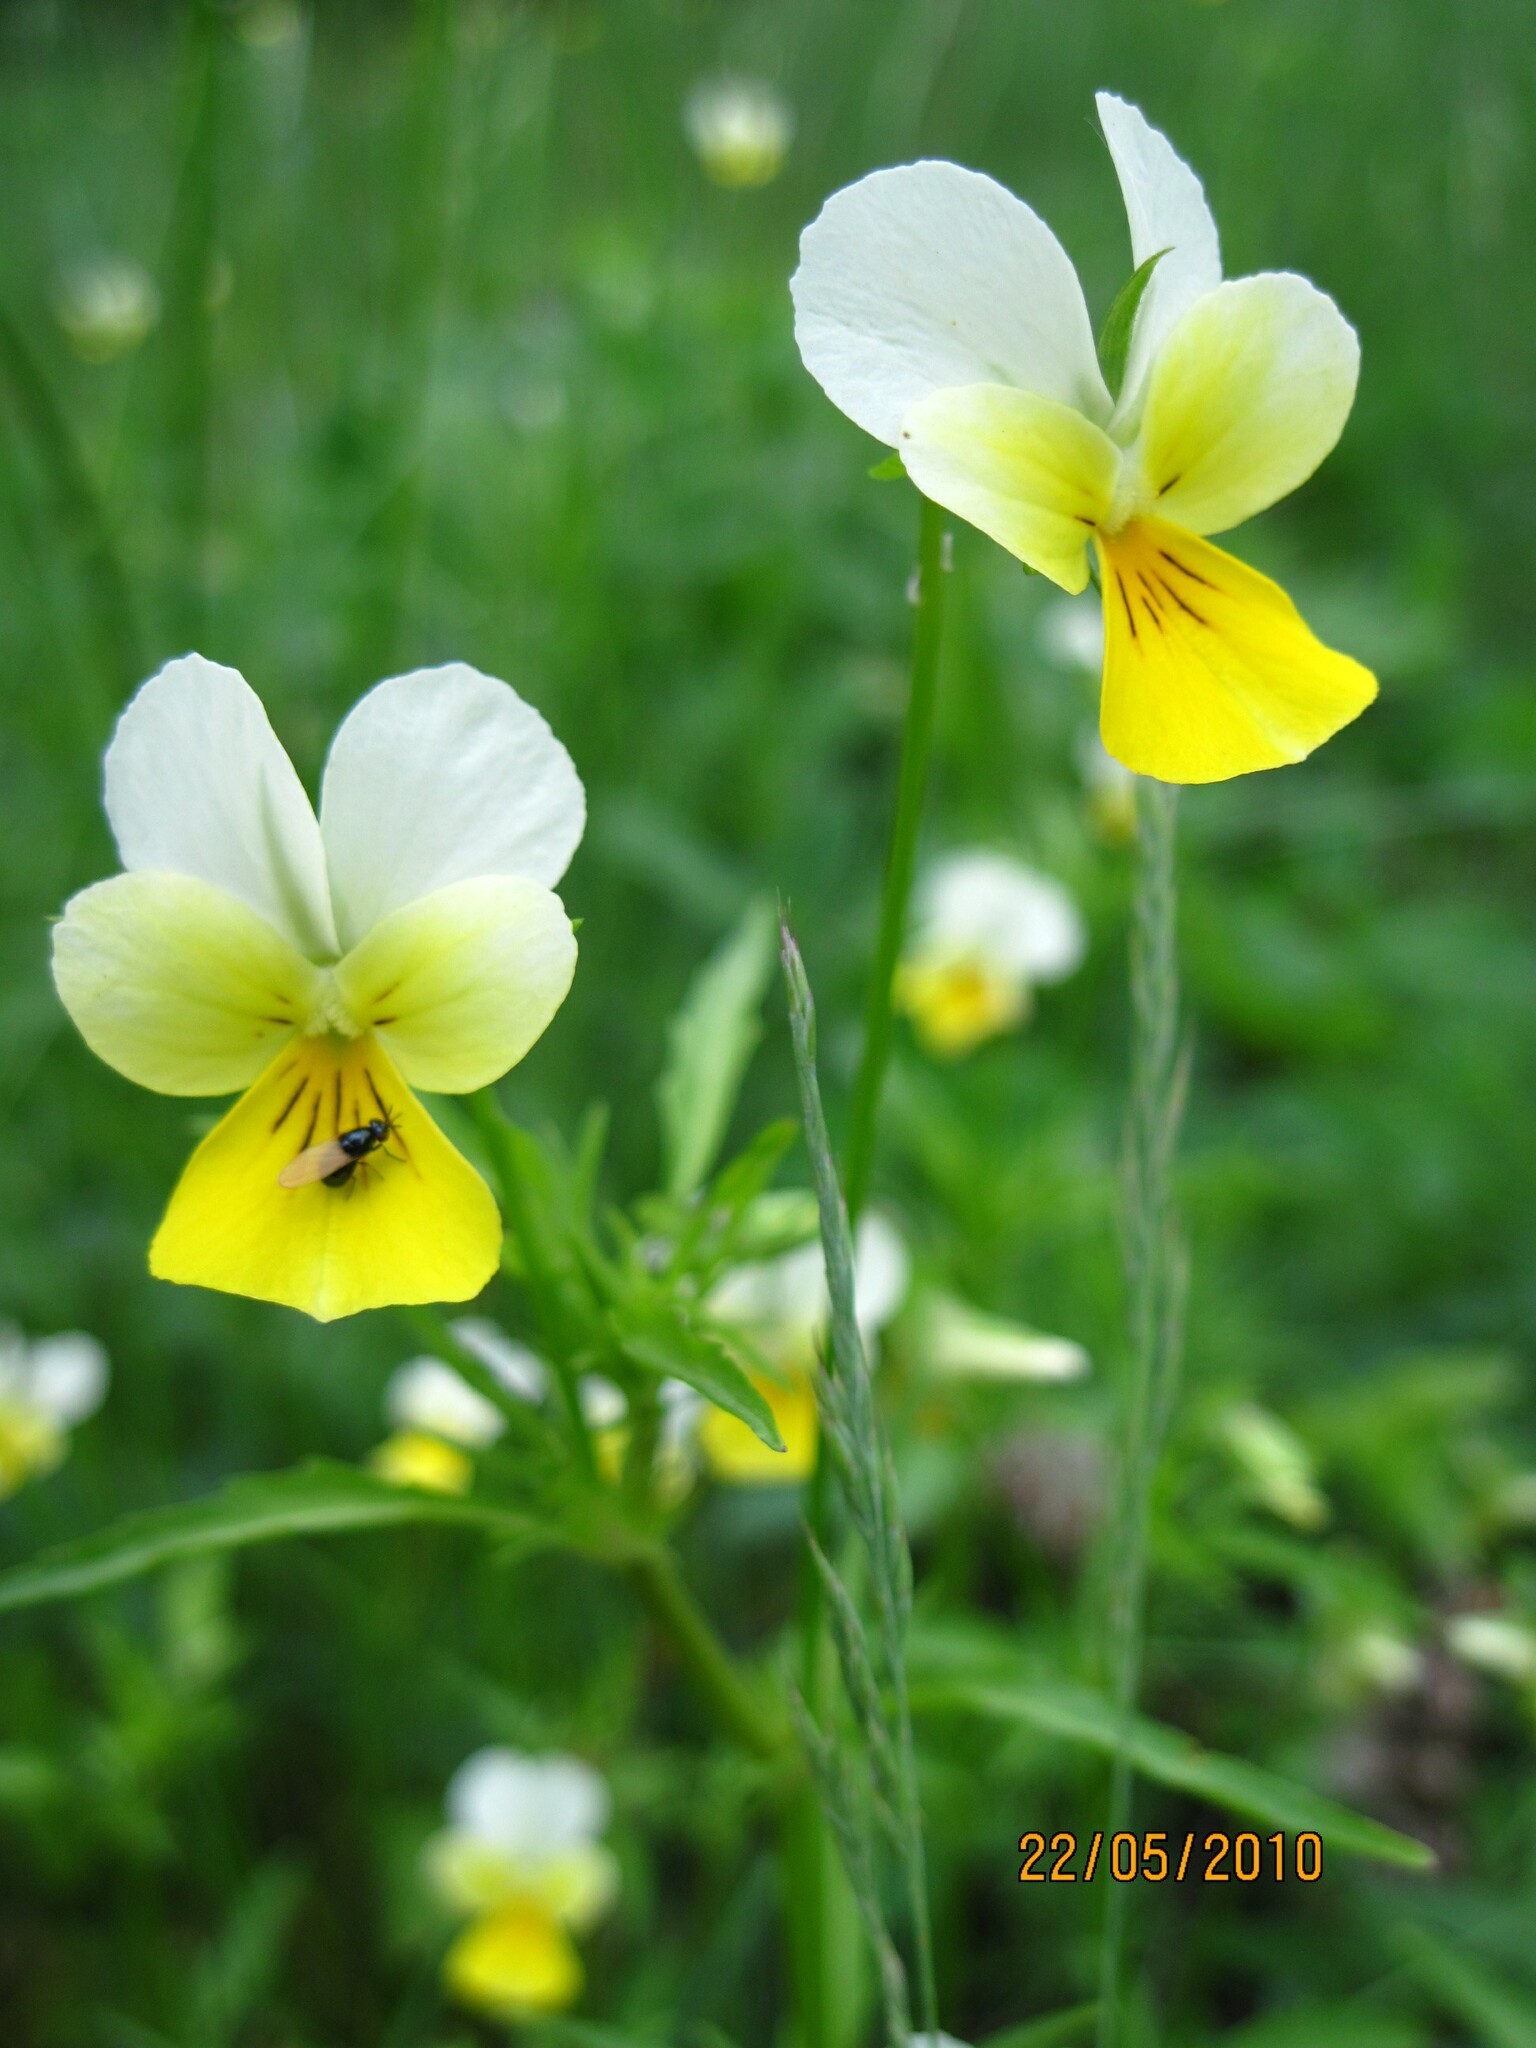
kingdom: Plantae
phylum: Tracheophyta
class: Magnoliopsida
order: Malpighiales
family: Violaceae
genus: Viola
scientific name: Viola tricolor
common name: Pansy
